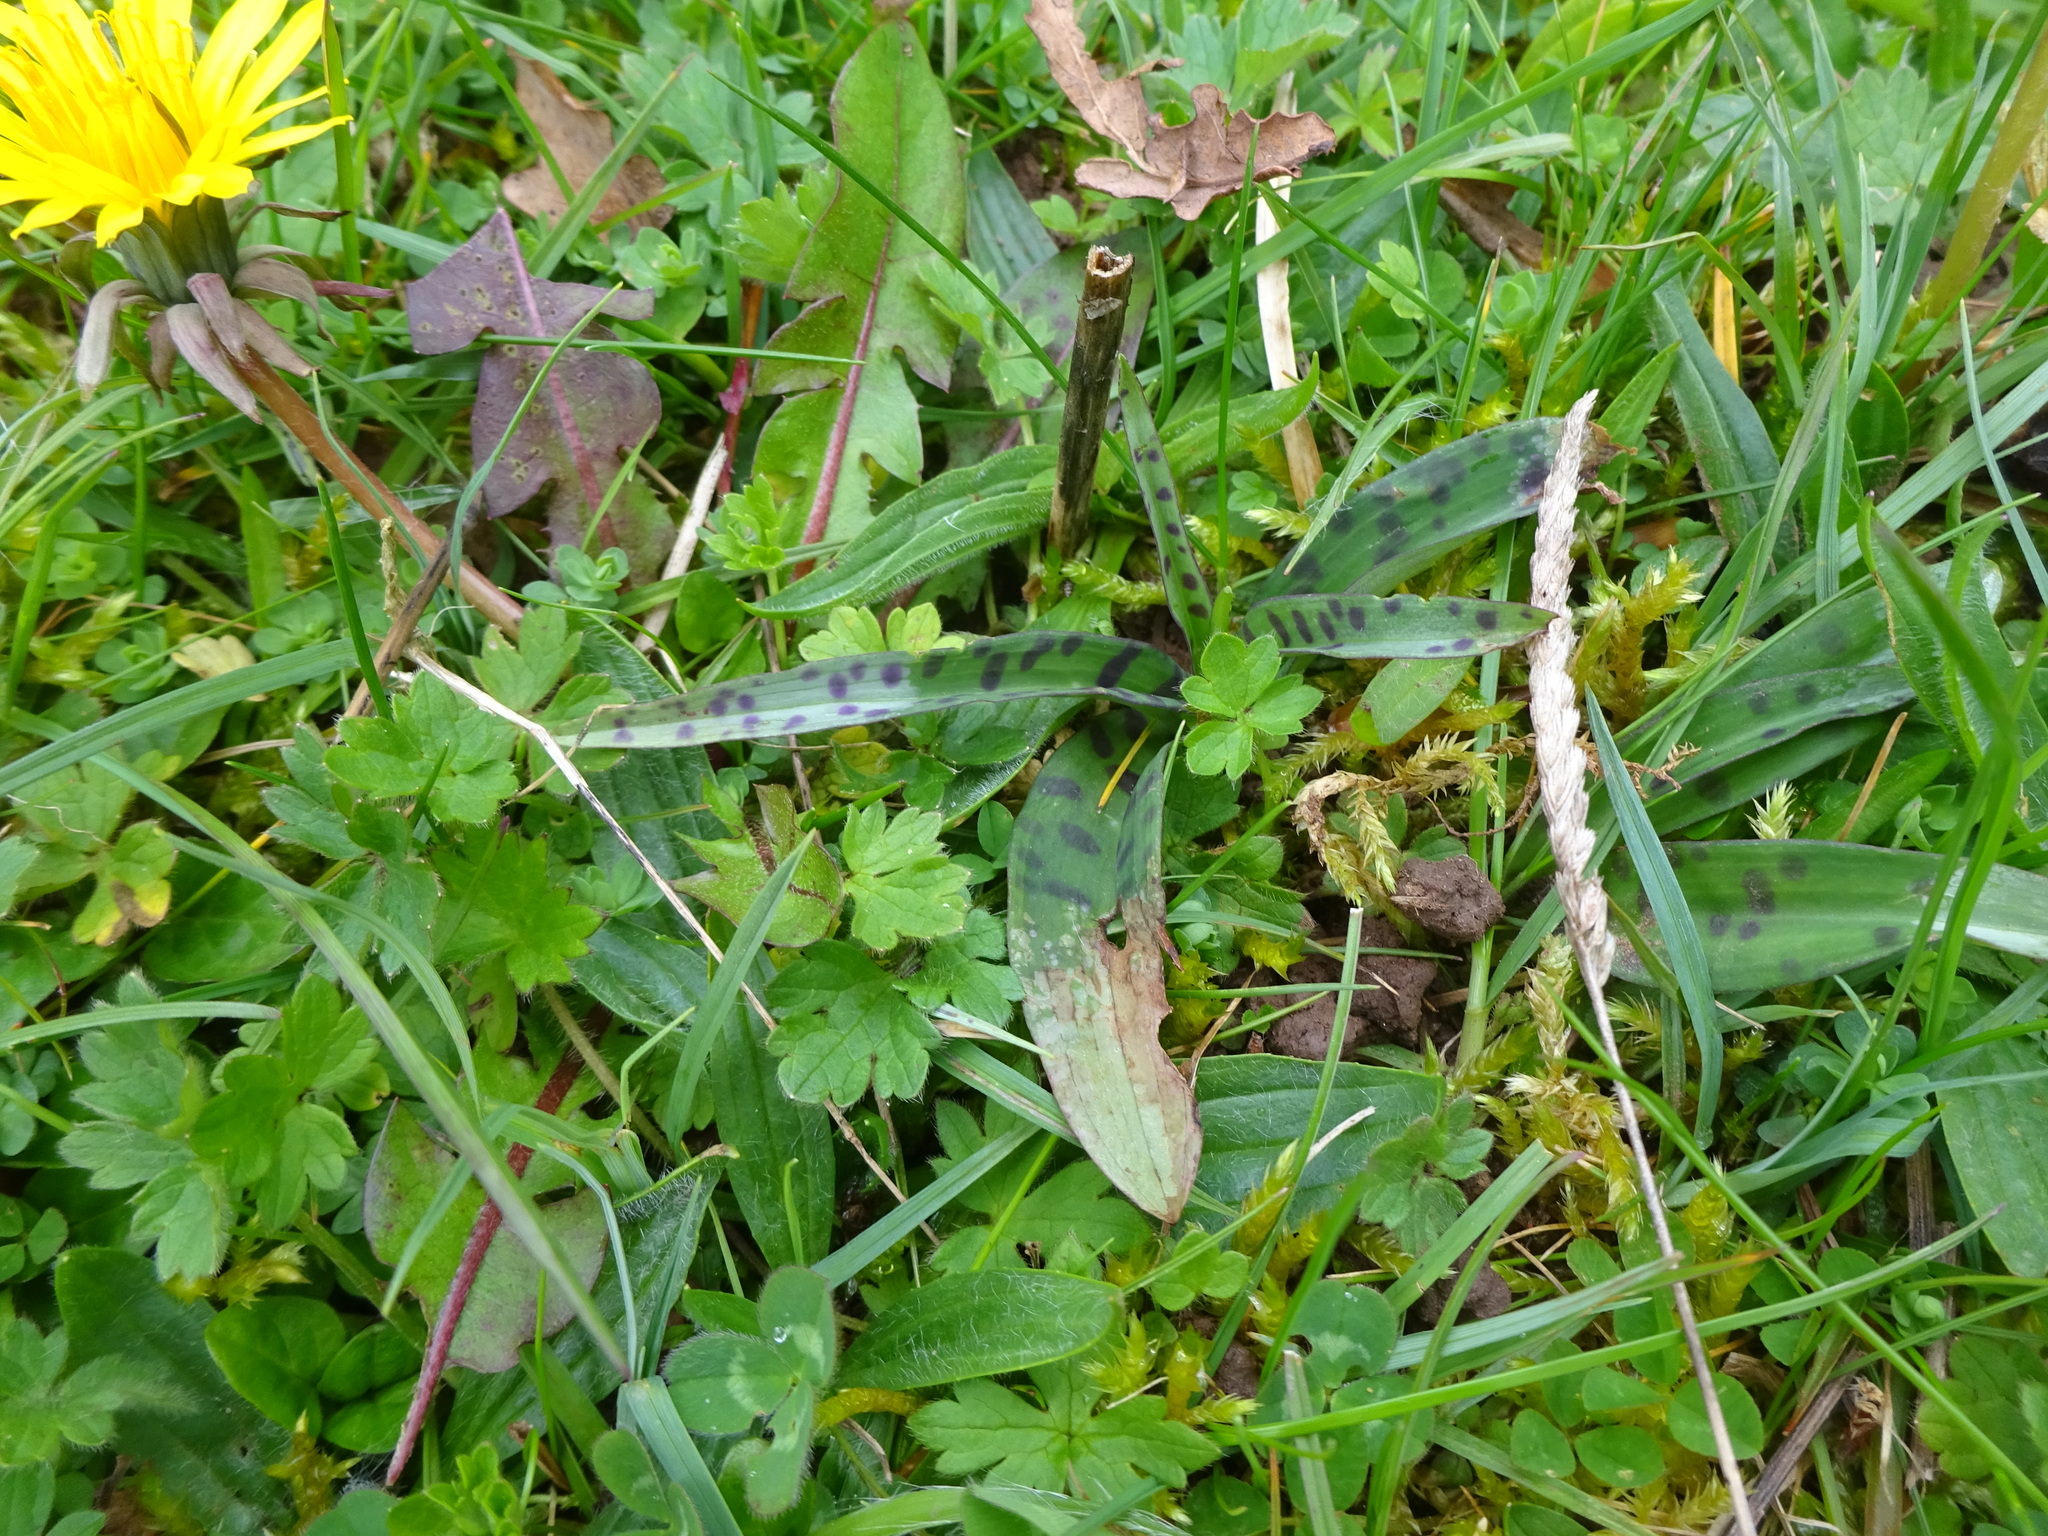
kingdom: Plantae
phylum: Tracheophyta
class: Liliopsida
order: Asparagales
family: Orchidaceae
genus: Dactylorhiza
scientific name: Dactylorhiza maculata
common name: Heath spotted-orchid
